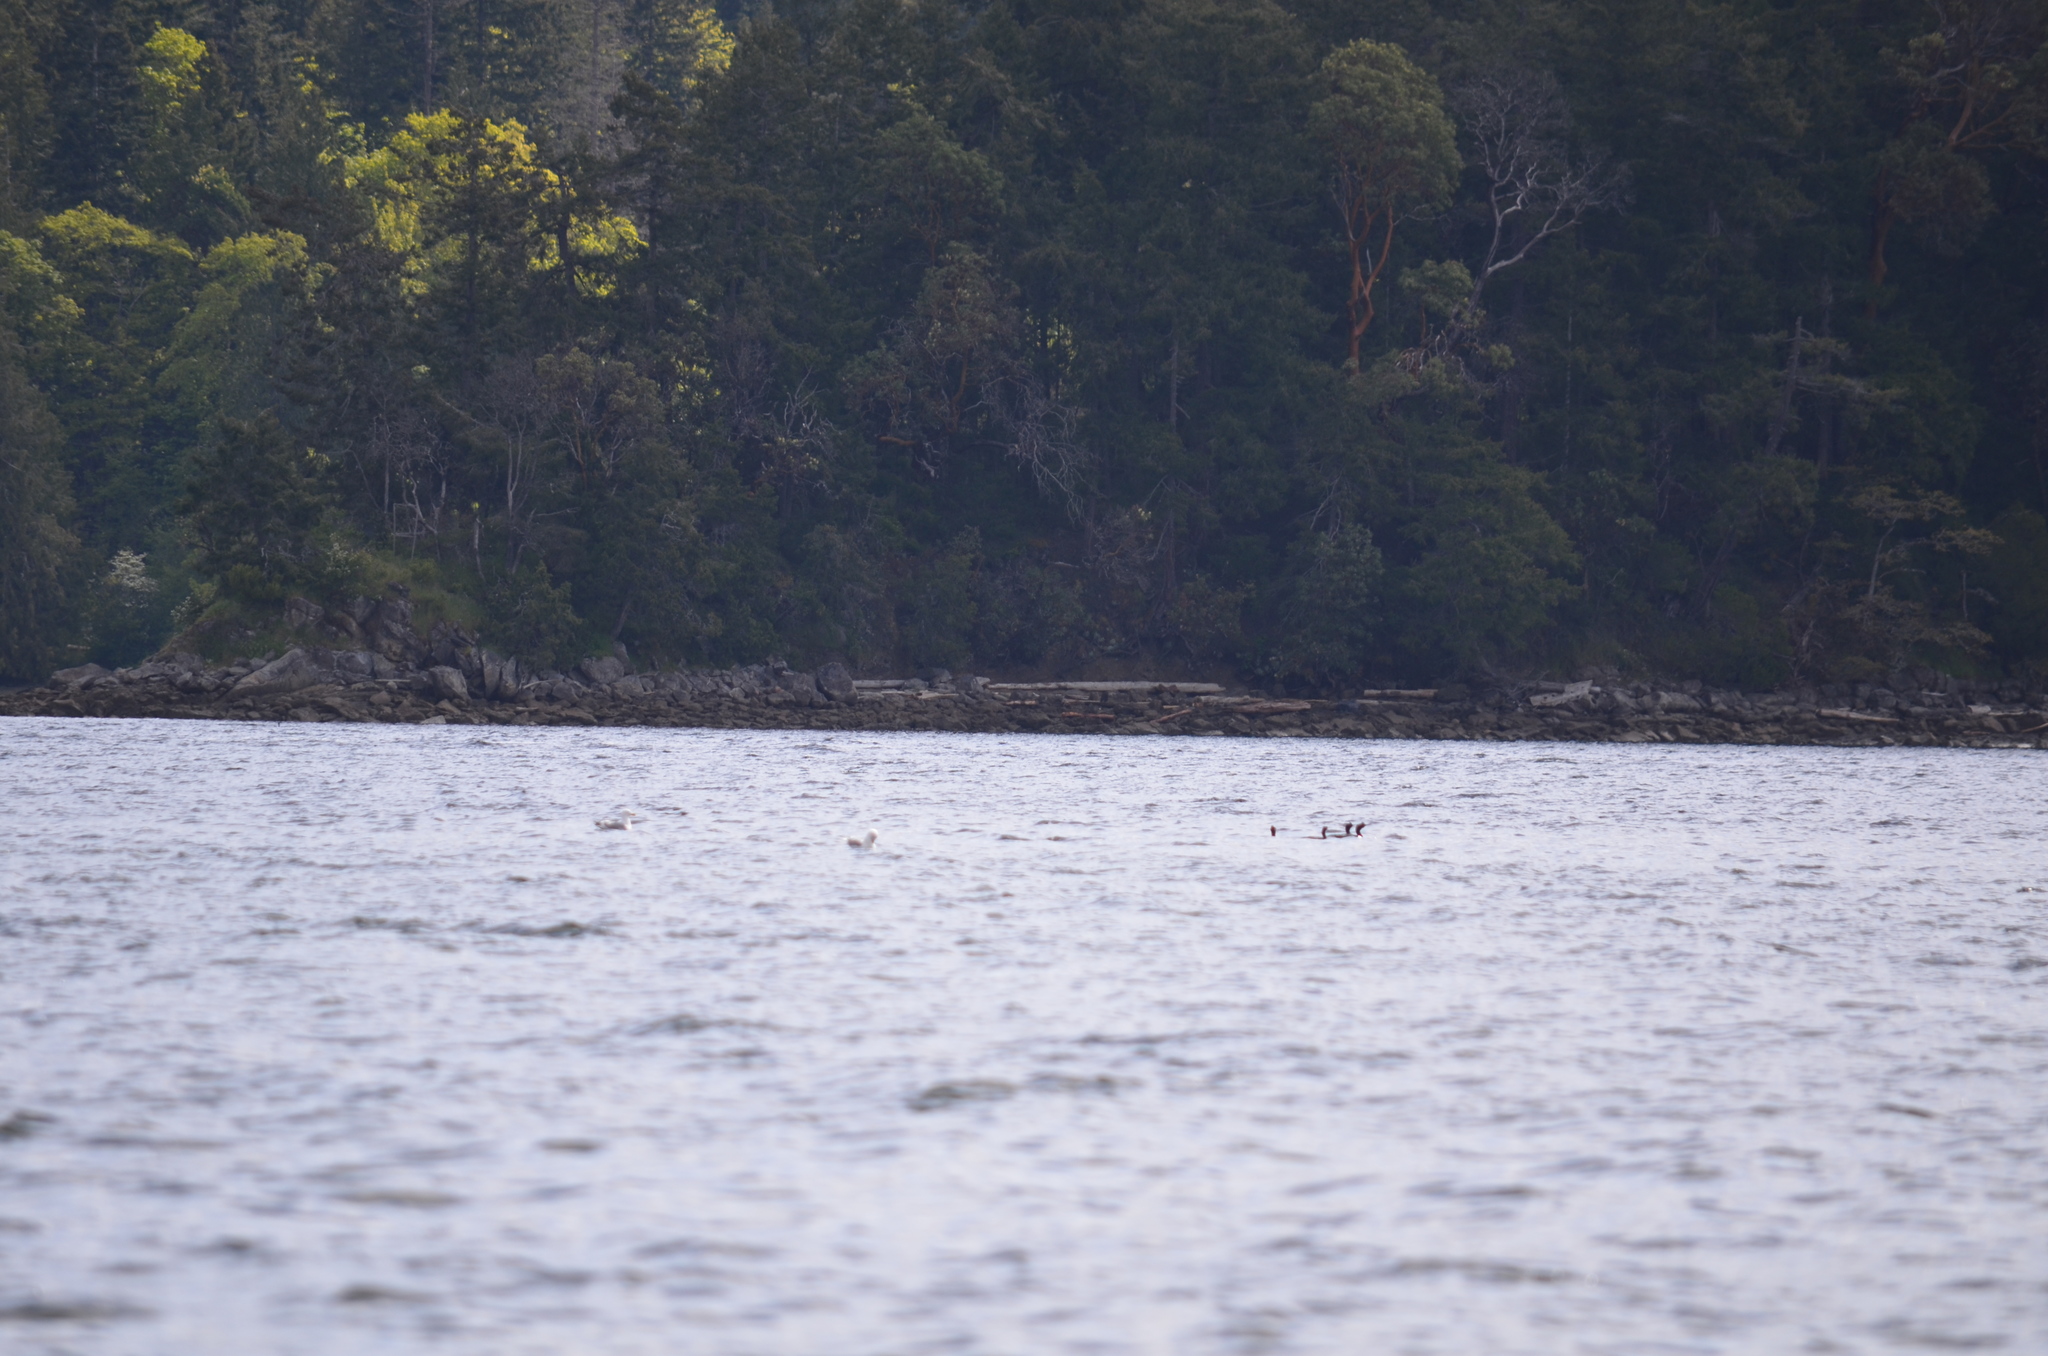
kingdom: Animalia
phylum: Chordata
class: Aves
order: Suliformes
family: Phalacrocoracidae
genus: Phalacrocorax
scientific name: Phalacrocorax pelagicus
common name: Pelagic cormorant
